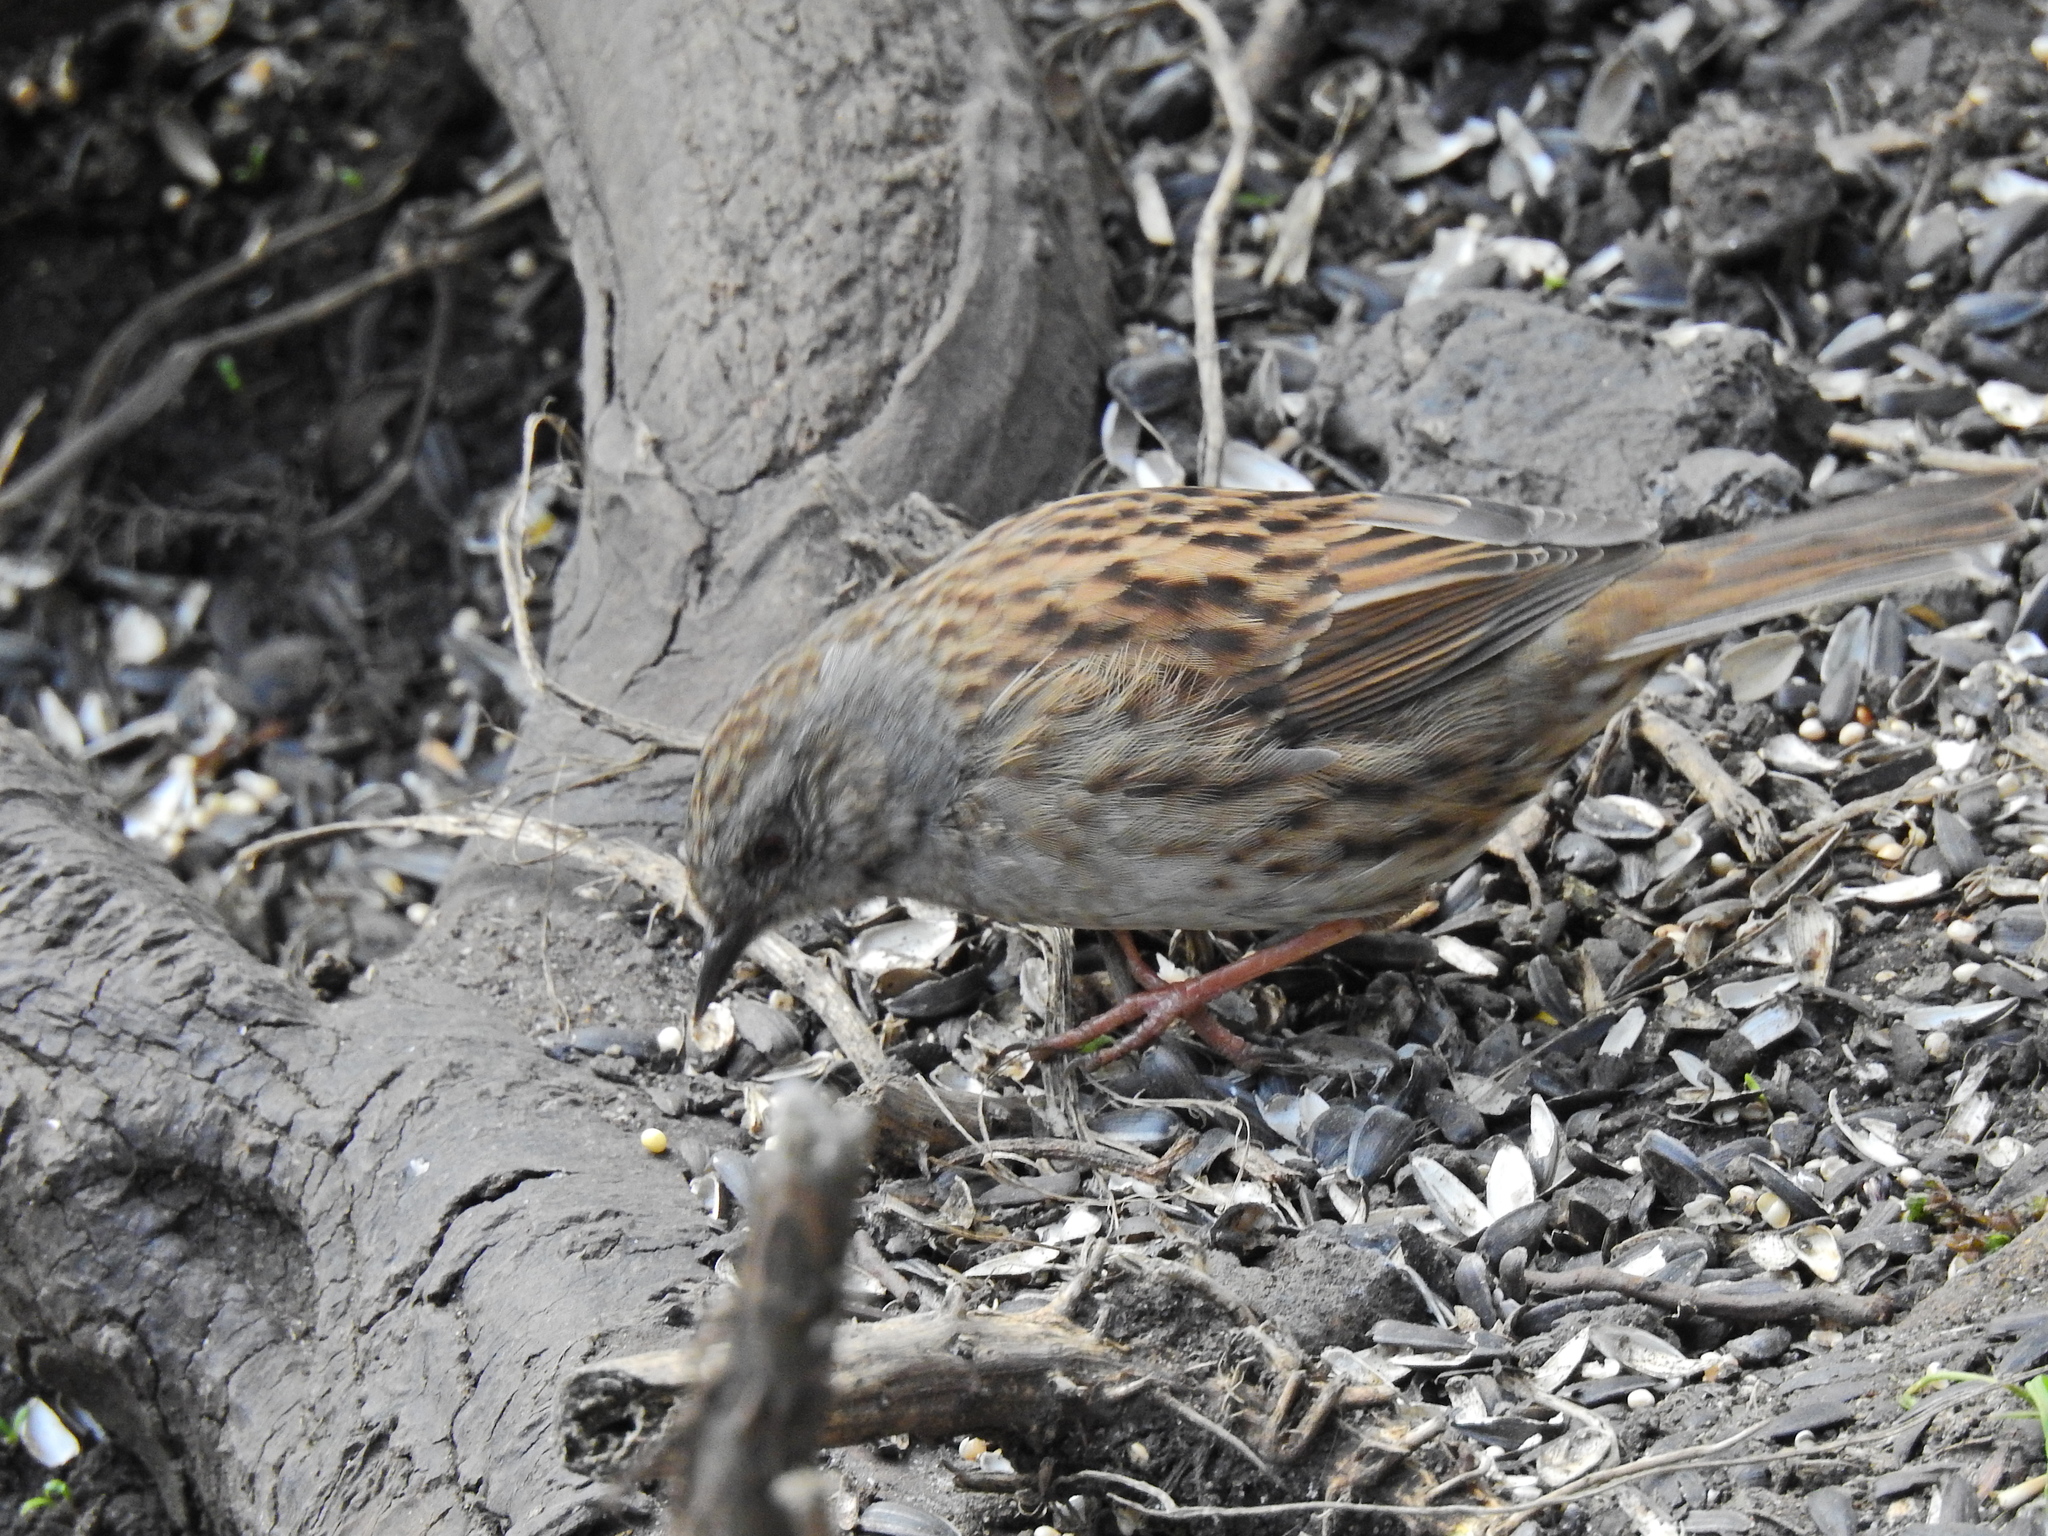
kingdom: Animalia
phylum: Chordata
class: Aves
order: Passeriformes
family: Prunellidae
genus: Prunella
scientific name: Prunella modularis
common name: Dunnock
